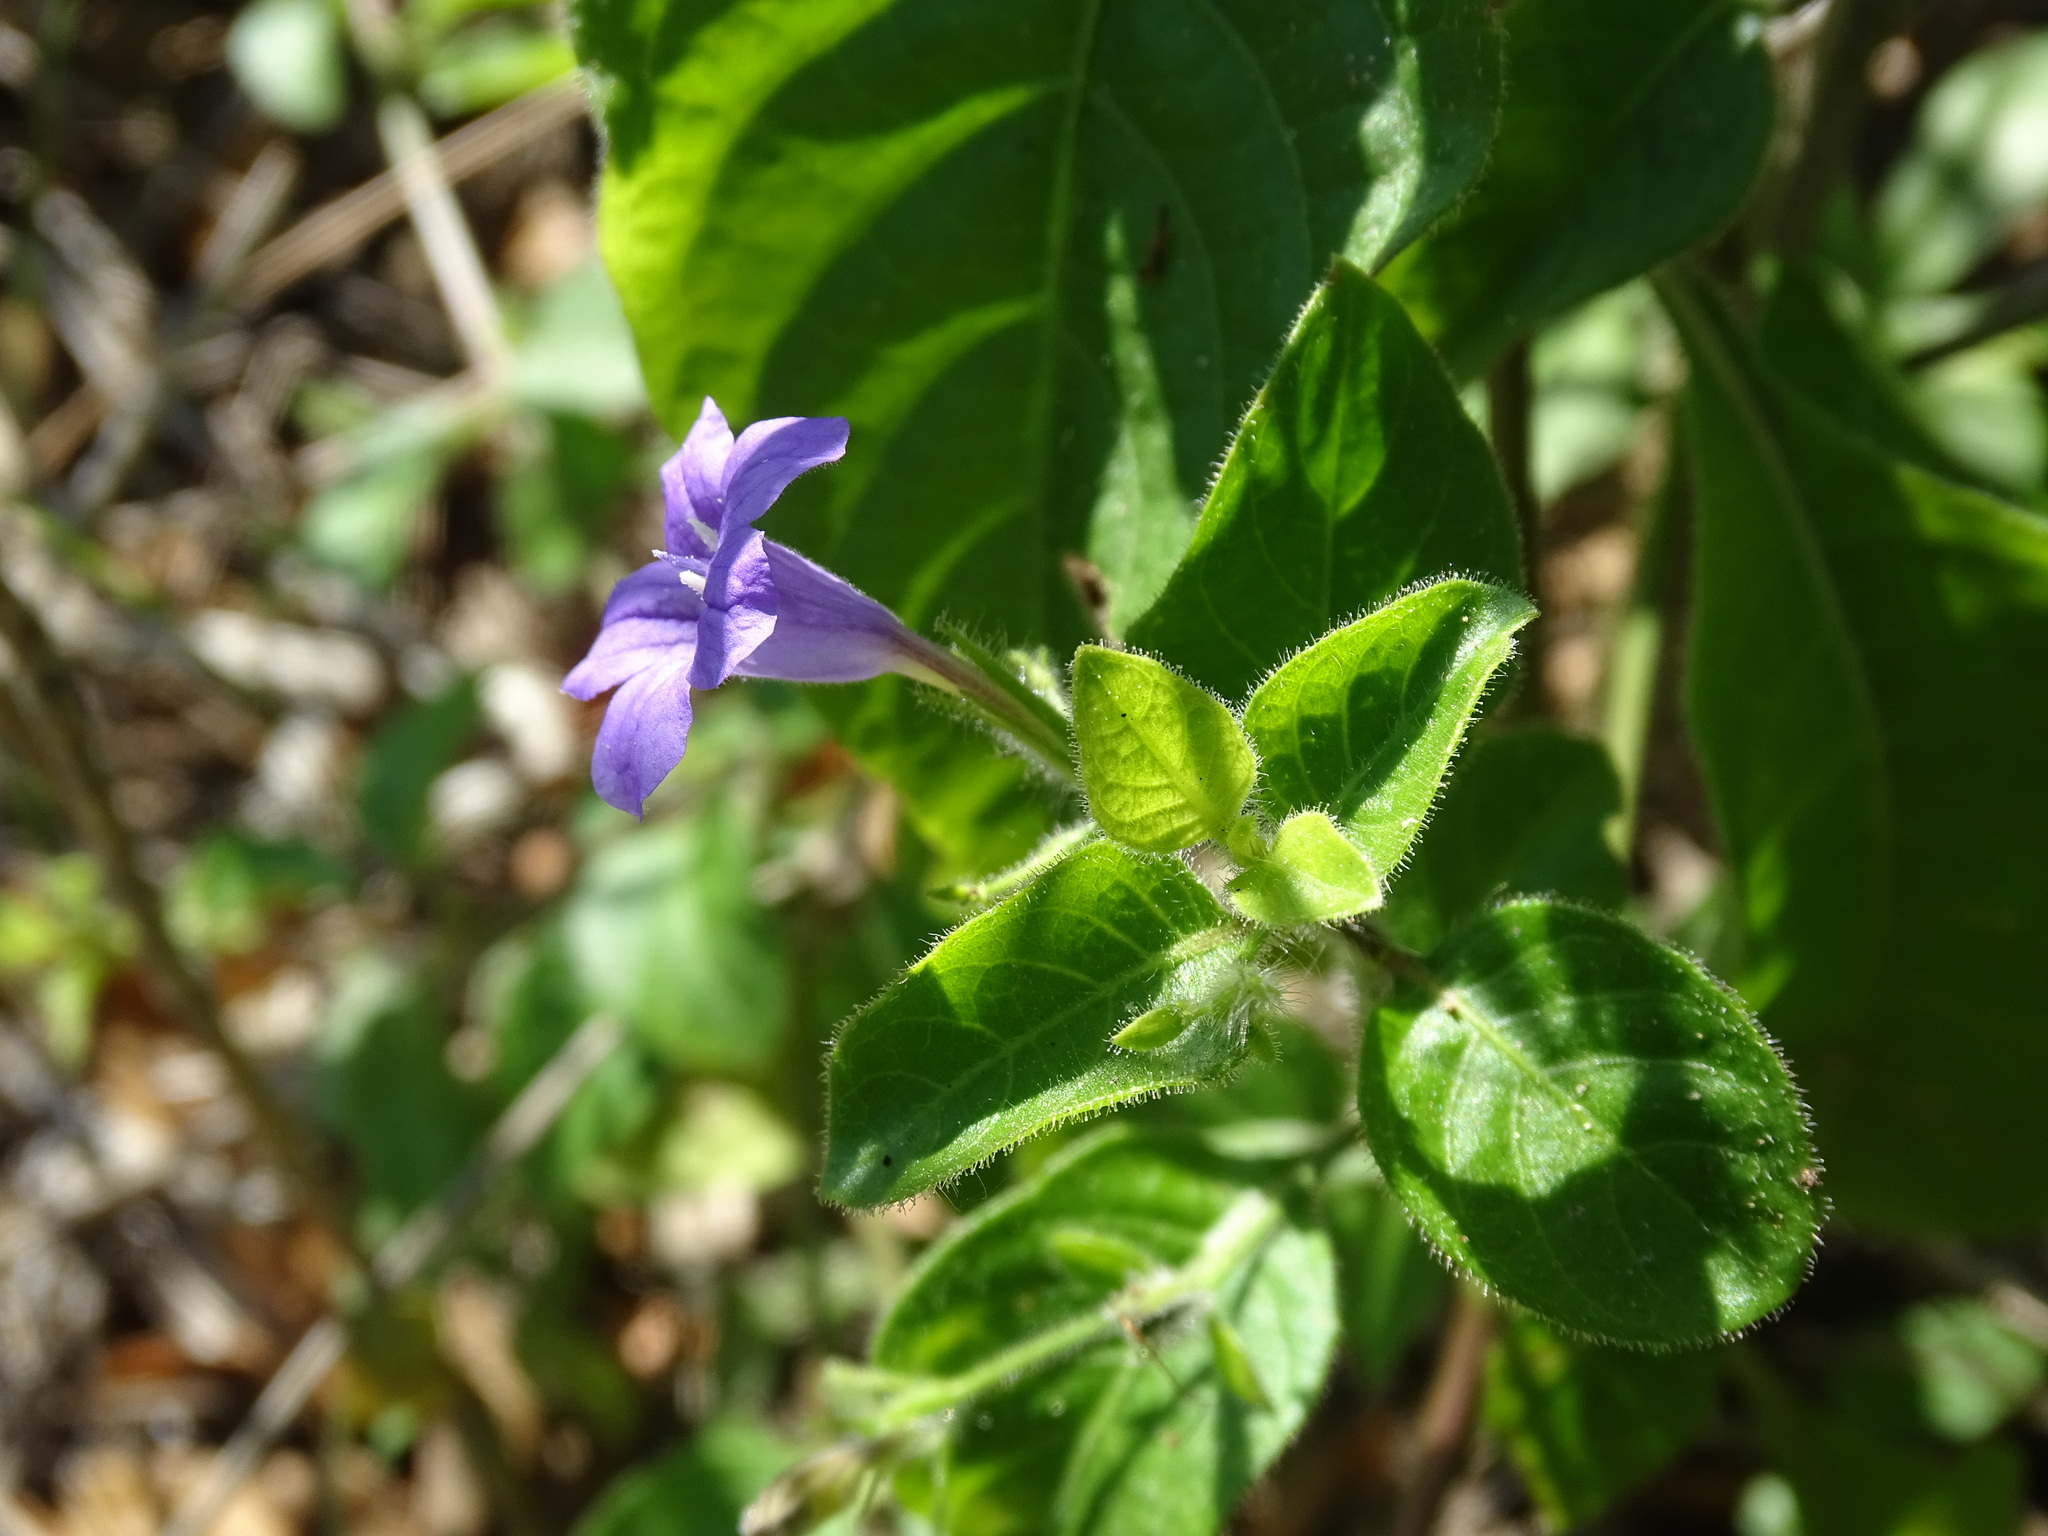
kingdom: Plantae
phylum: Tracheophyta
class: Magnoliopsida
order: Lamiales
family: Acanthaceae
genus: Ruellia
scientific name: Ruellia paniculata
